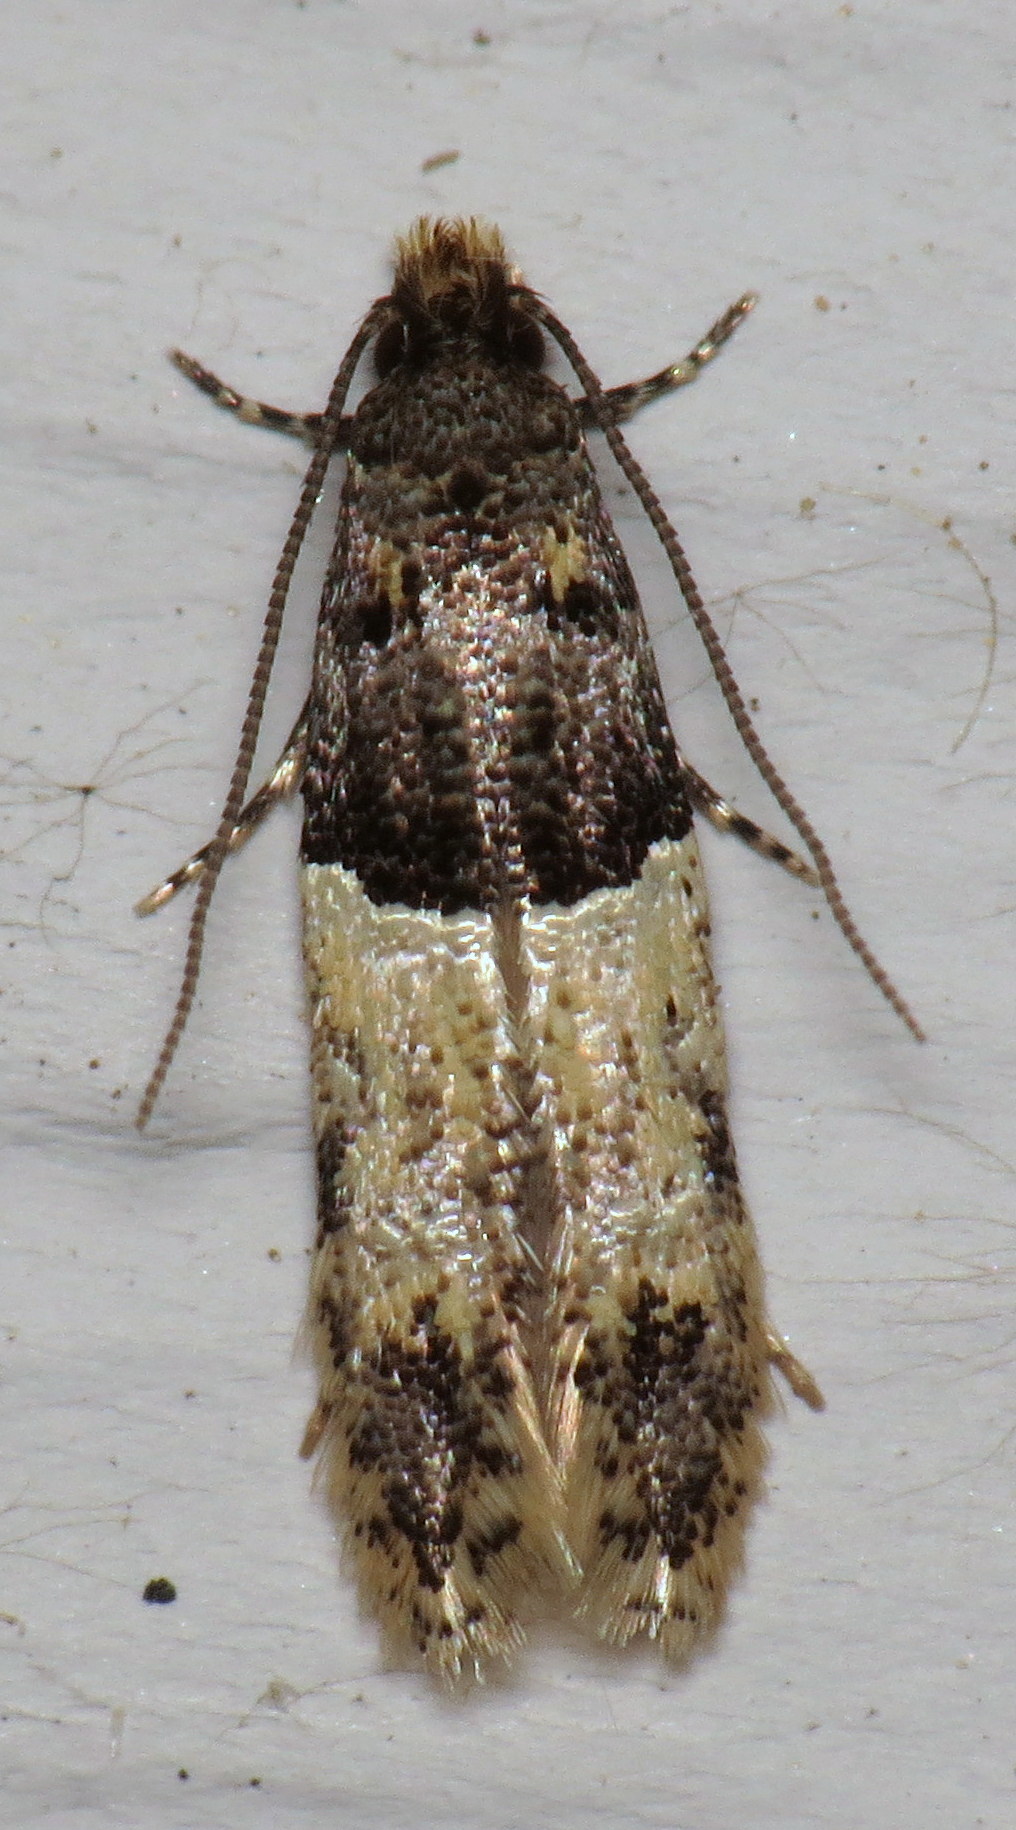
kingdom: Animalia
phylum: Arthropoda
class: Insecta
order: Lepidoptera
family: Meessiidae
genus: Oenoe
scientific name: Oenoe hybromella
